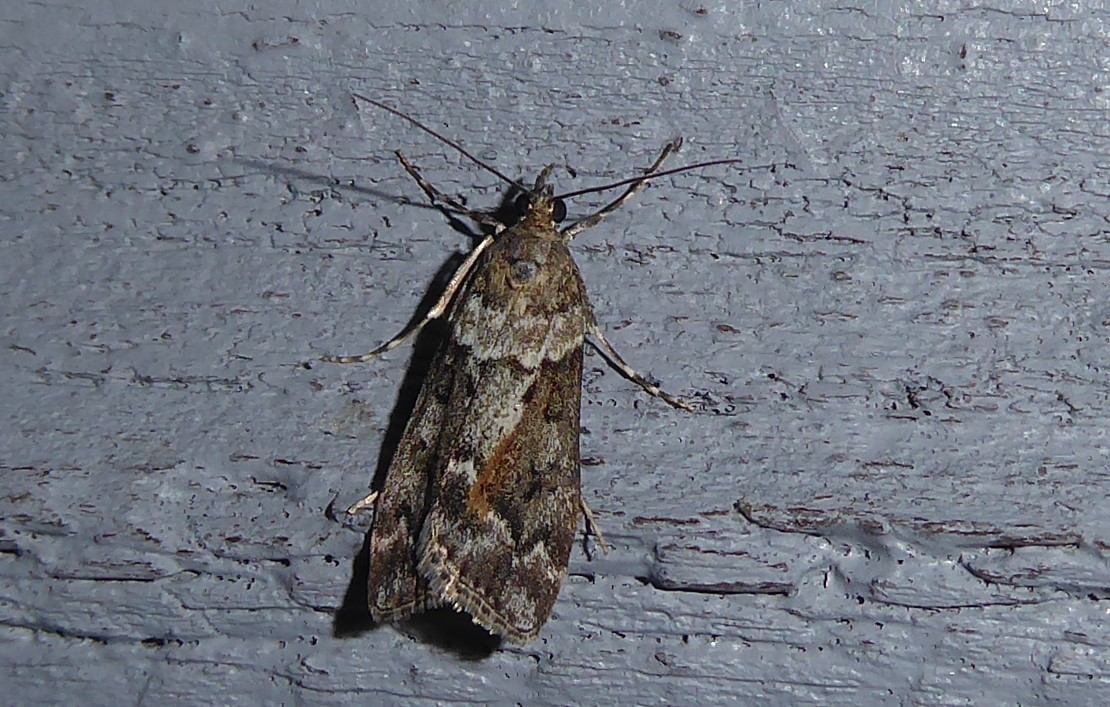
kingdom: Animalia
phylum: Arthropoda
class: Insecta
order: Lepidoptera
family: Crambidae
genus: Eudonia
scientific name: Eudonia submarginalis
